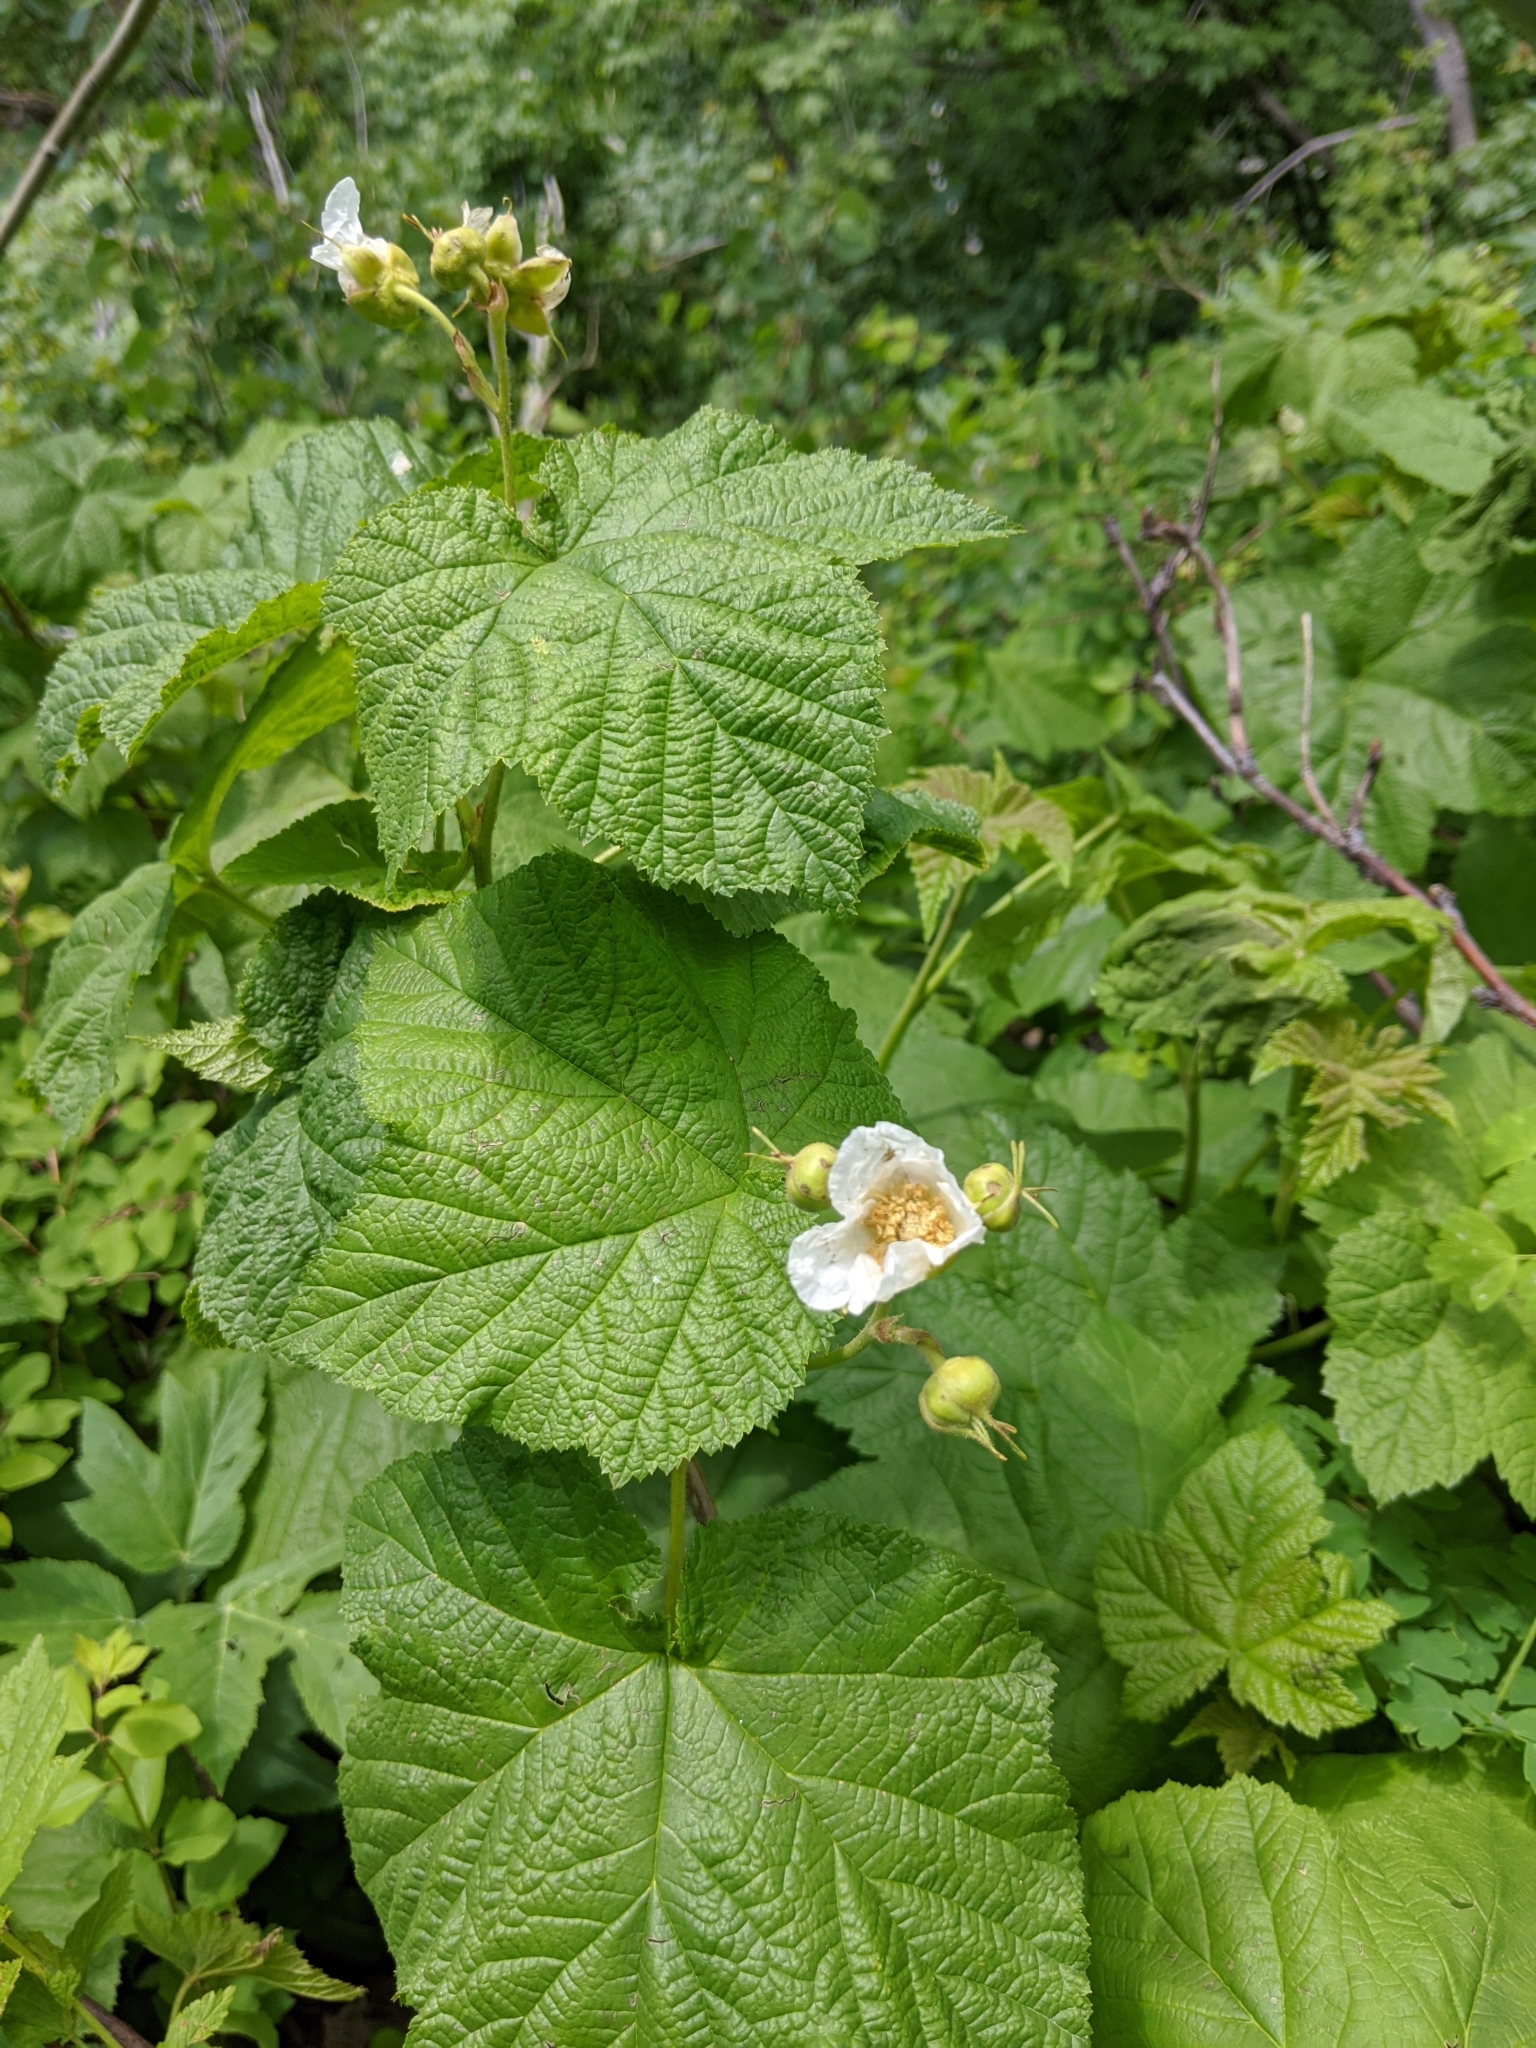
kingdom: Plantae
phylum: Tracheophyta
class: Magnoliopsida
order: Rosales
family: Rosaceae
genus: Rubus
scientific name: Rubus parviflorus
